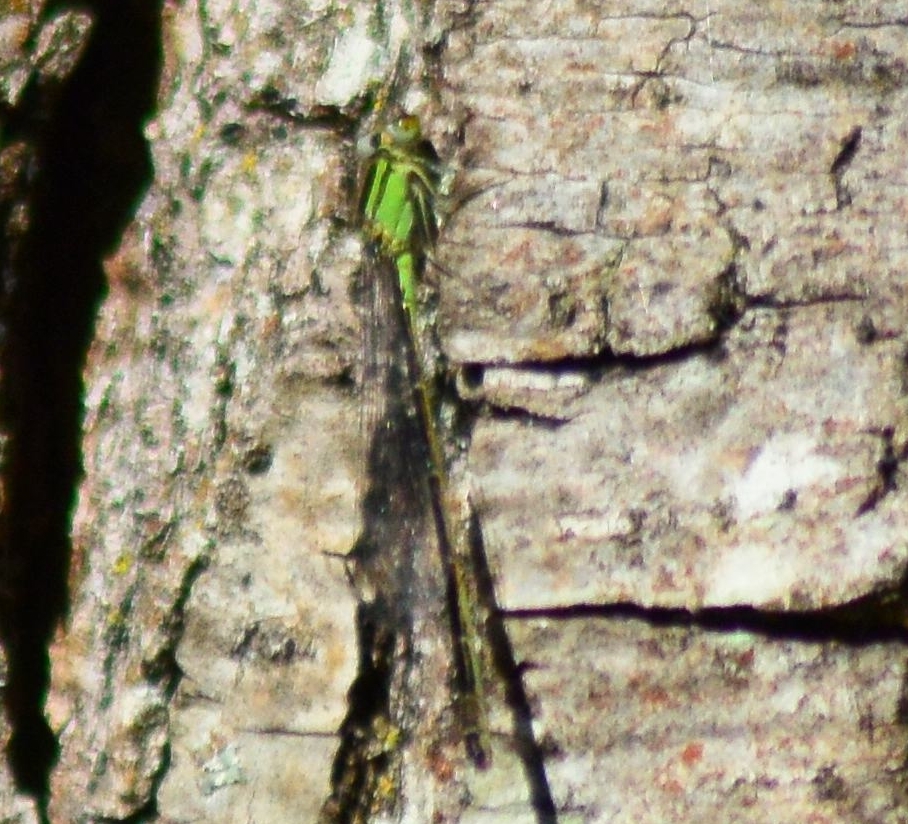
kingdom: Animalia
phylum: Arthropoda
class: Insecta
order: Odonata
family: Coenagrionidae
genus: Ischnura
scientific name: Ischnura elegans
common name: Blue-tailed damselfly
